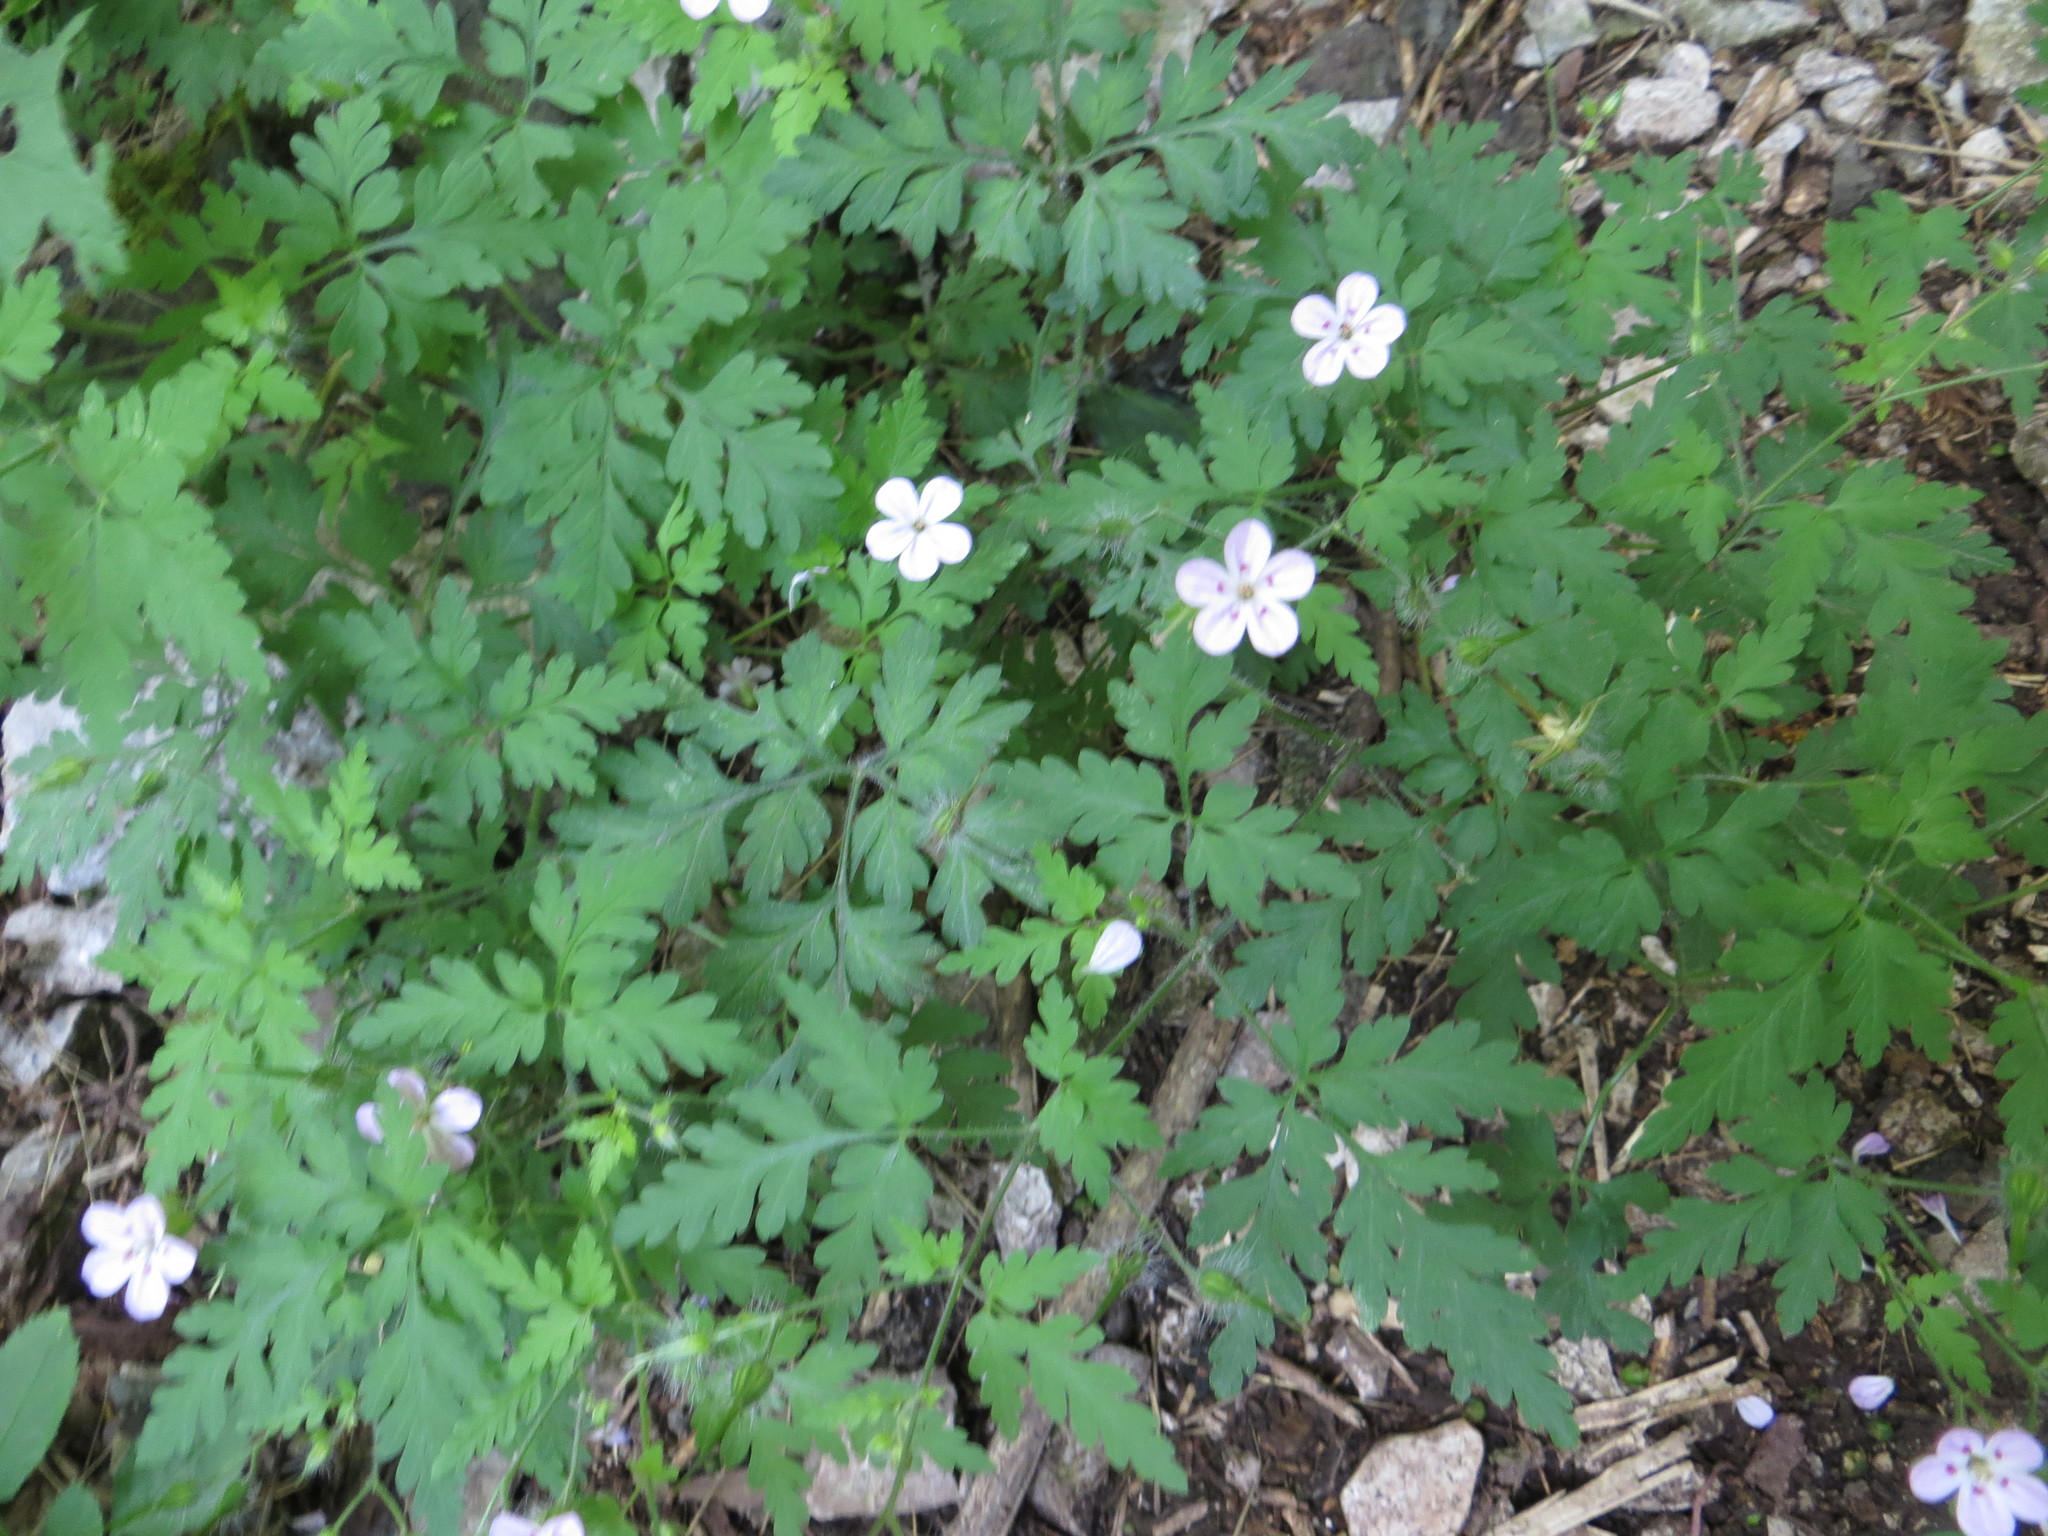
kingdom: Plantae
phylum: Tracheophyta
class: Magnoliopsida
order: Geraniales
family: Geraniaceae
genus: Geranium
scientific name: Geranium robertianum
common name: Herb-robert
